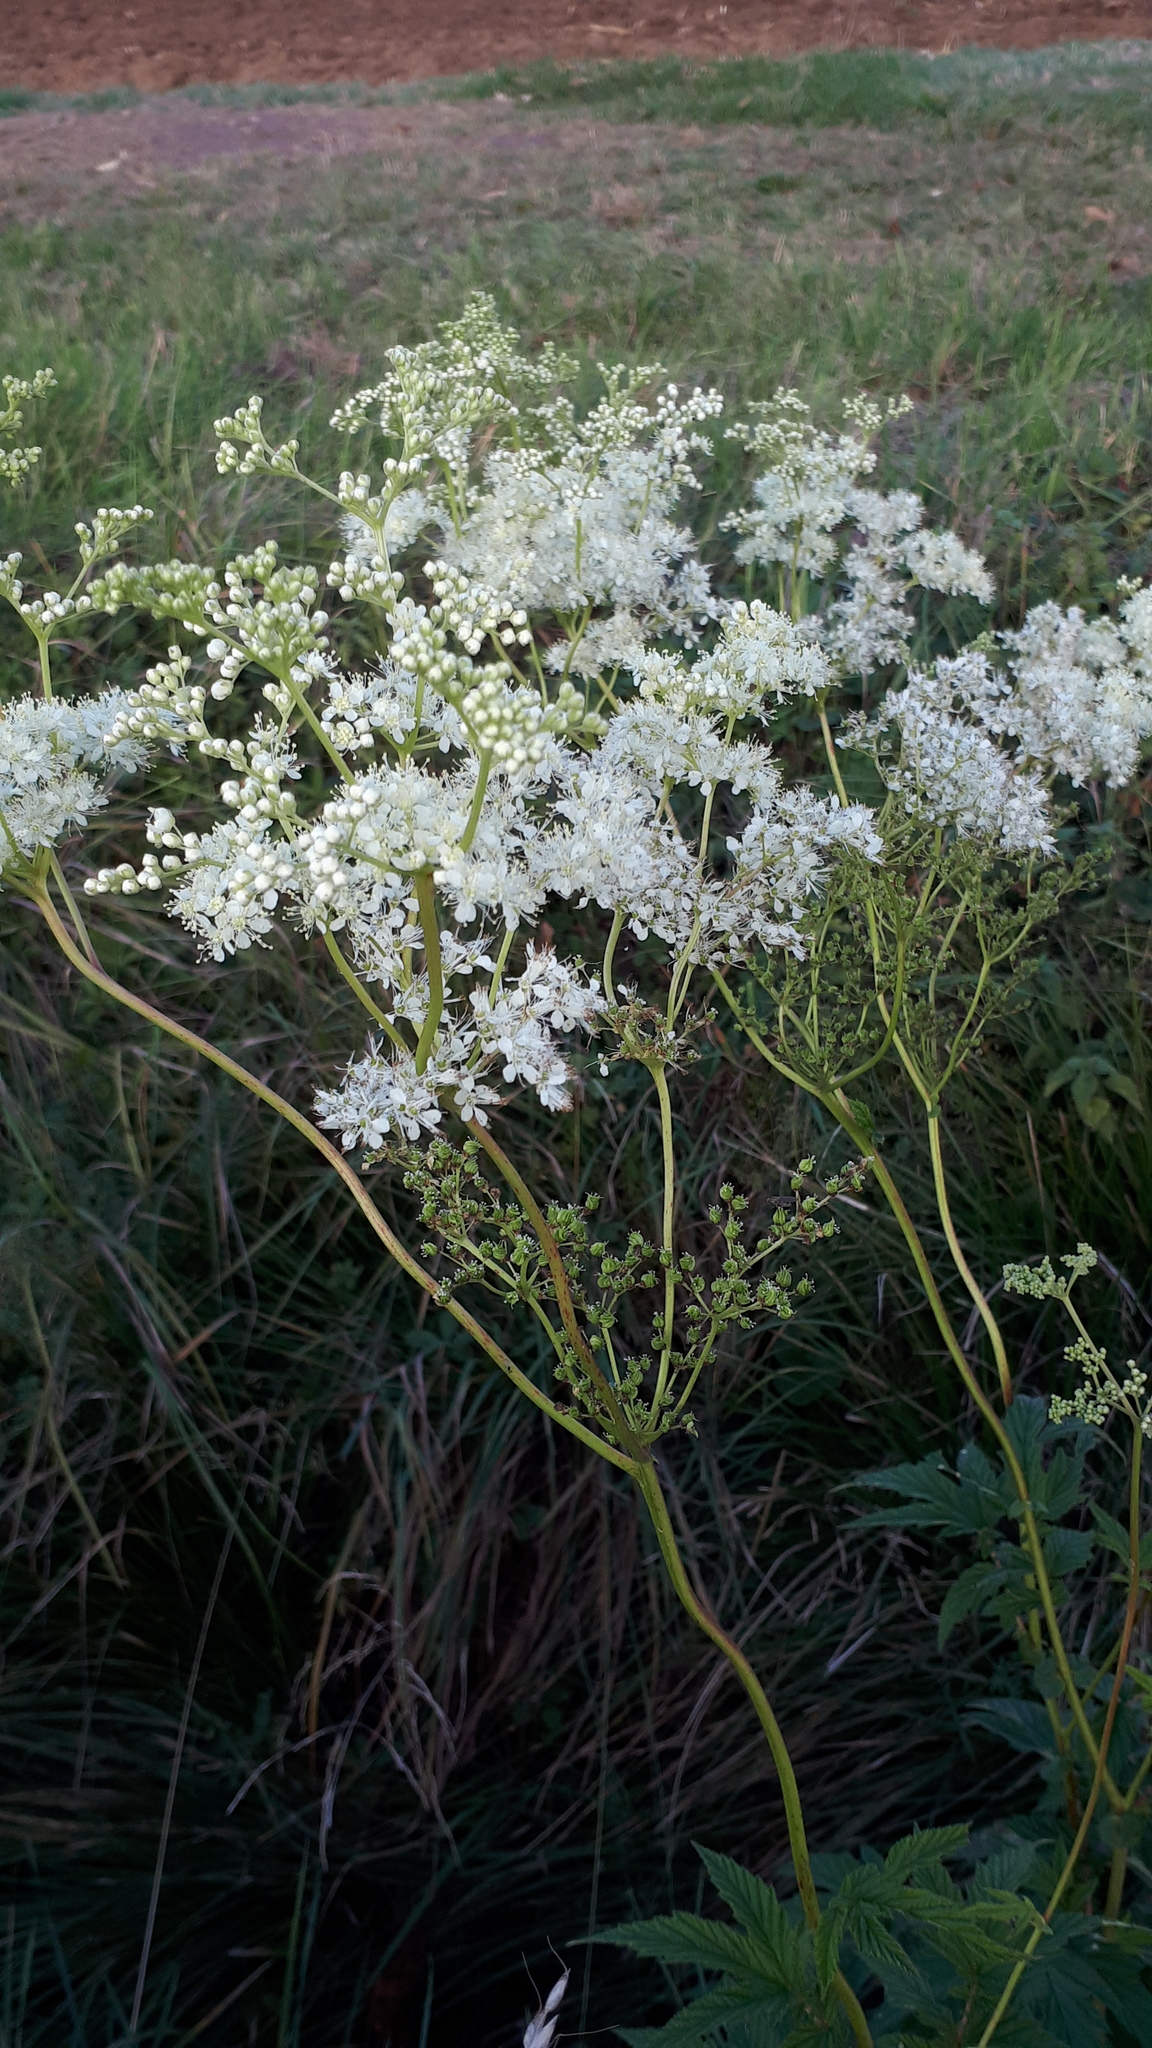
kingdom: Plantae
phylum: Tracheophyta
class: Magnoliopsida
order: Rosales
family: Rosaceae
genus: Filipendula
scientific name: Filipendula ulmaria
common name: Meadowsweet
